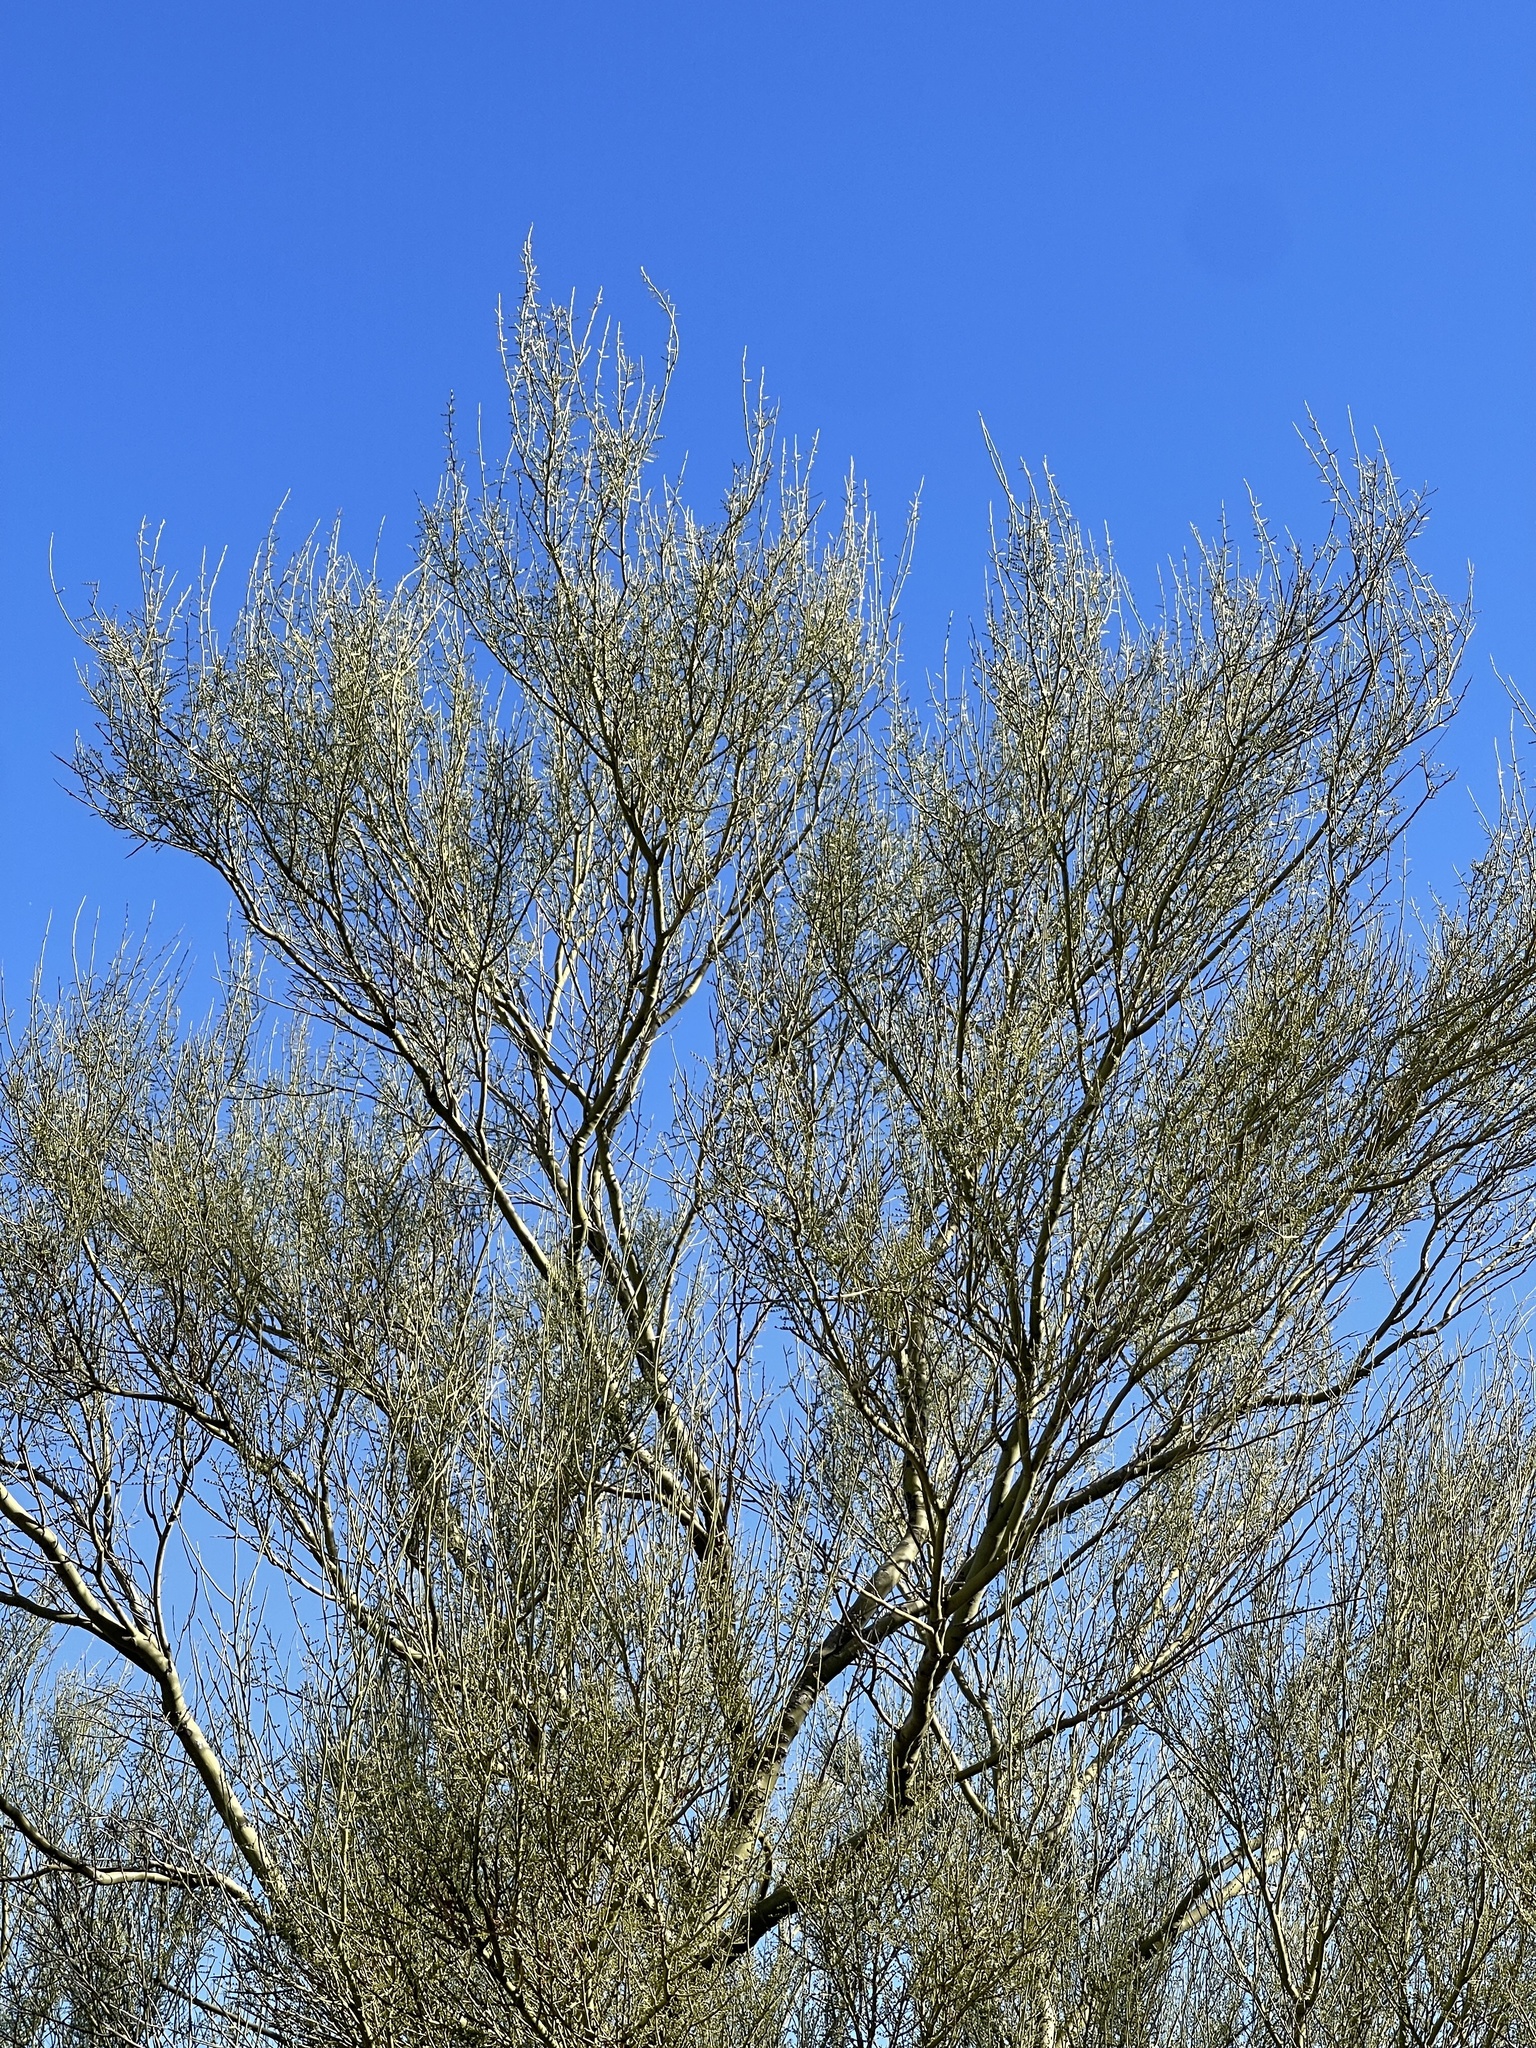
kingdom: Plantae
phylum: Tracheophyta
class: Magnoliopsida
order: Fabales
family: Fabaceae
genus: Parkinsonia
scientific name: Parkinsonia microphylla
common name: Yellow paloverde
